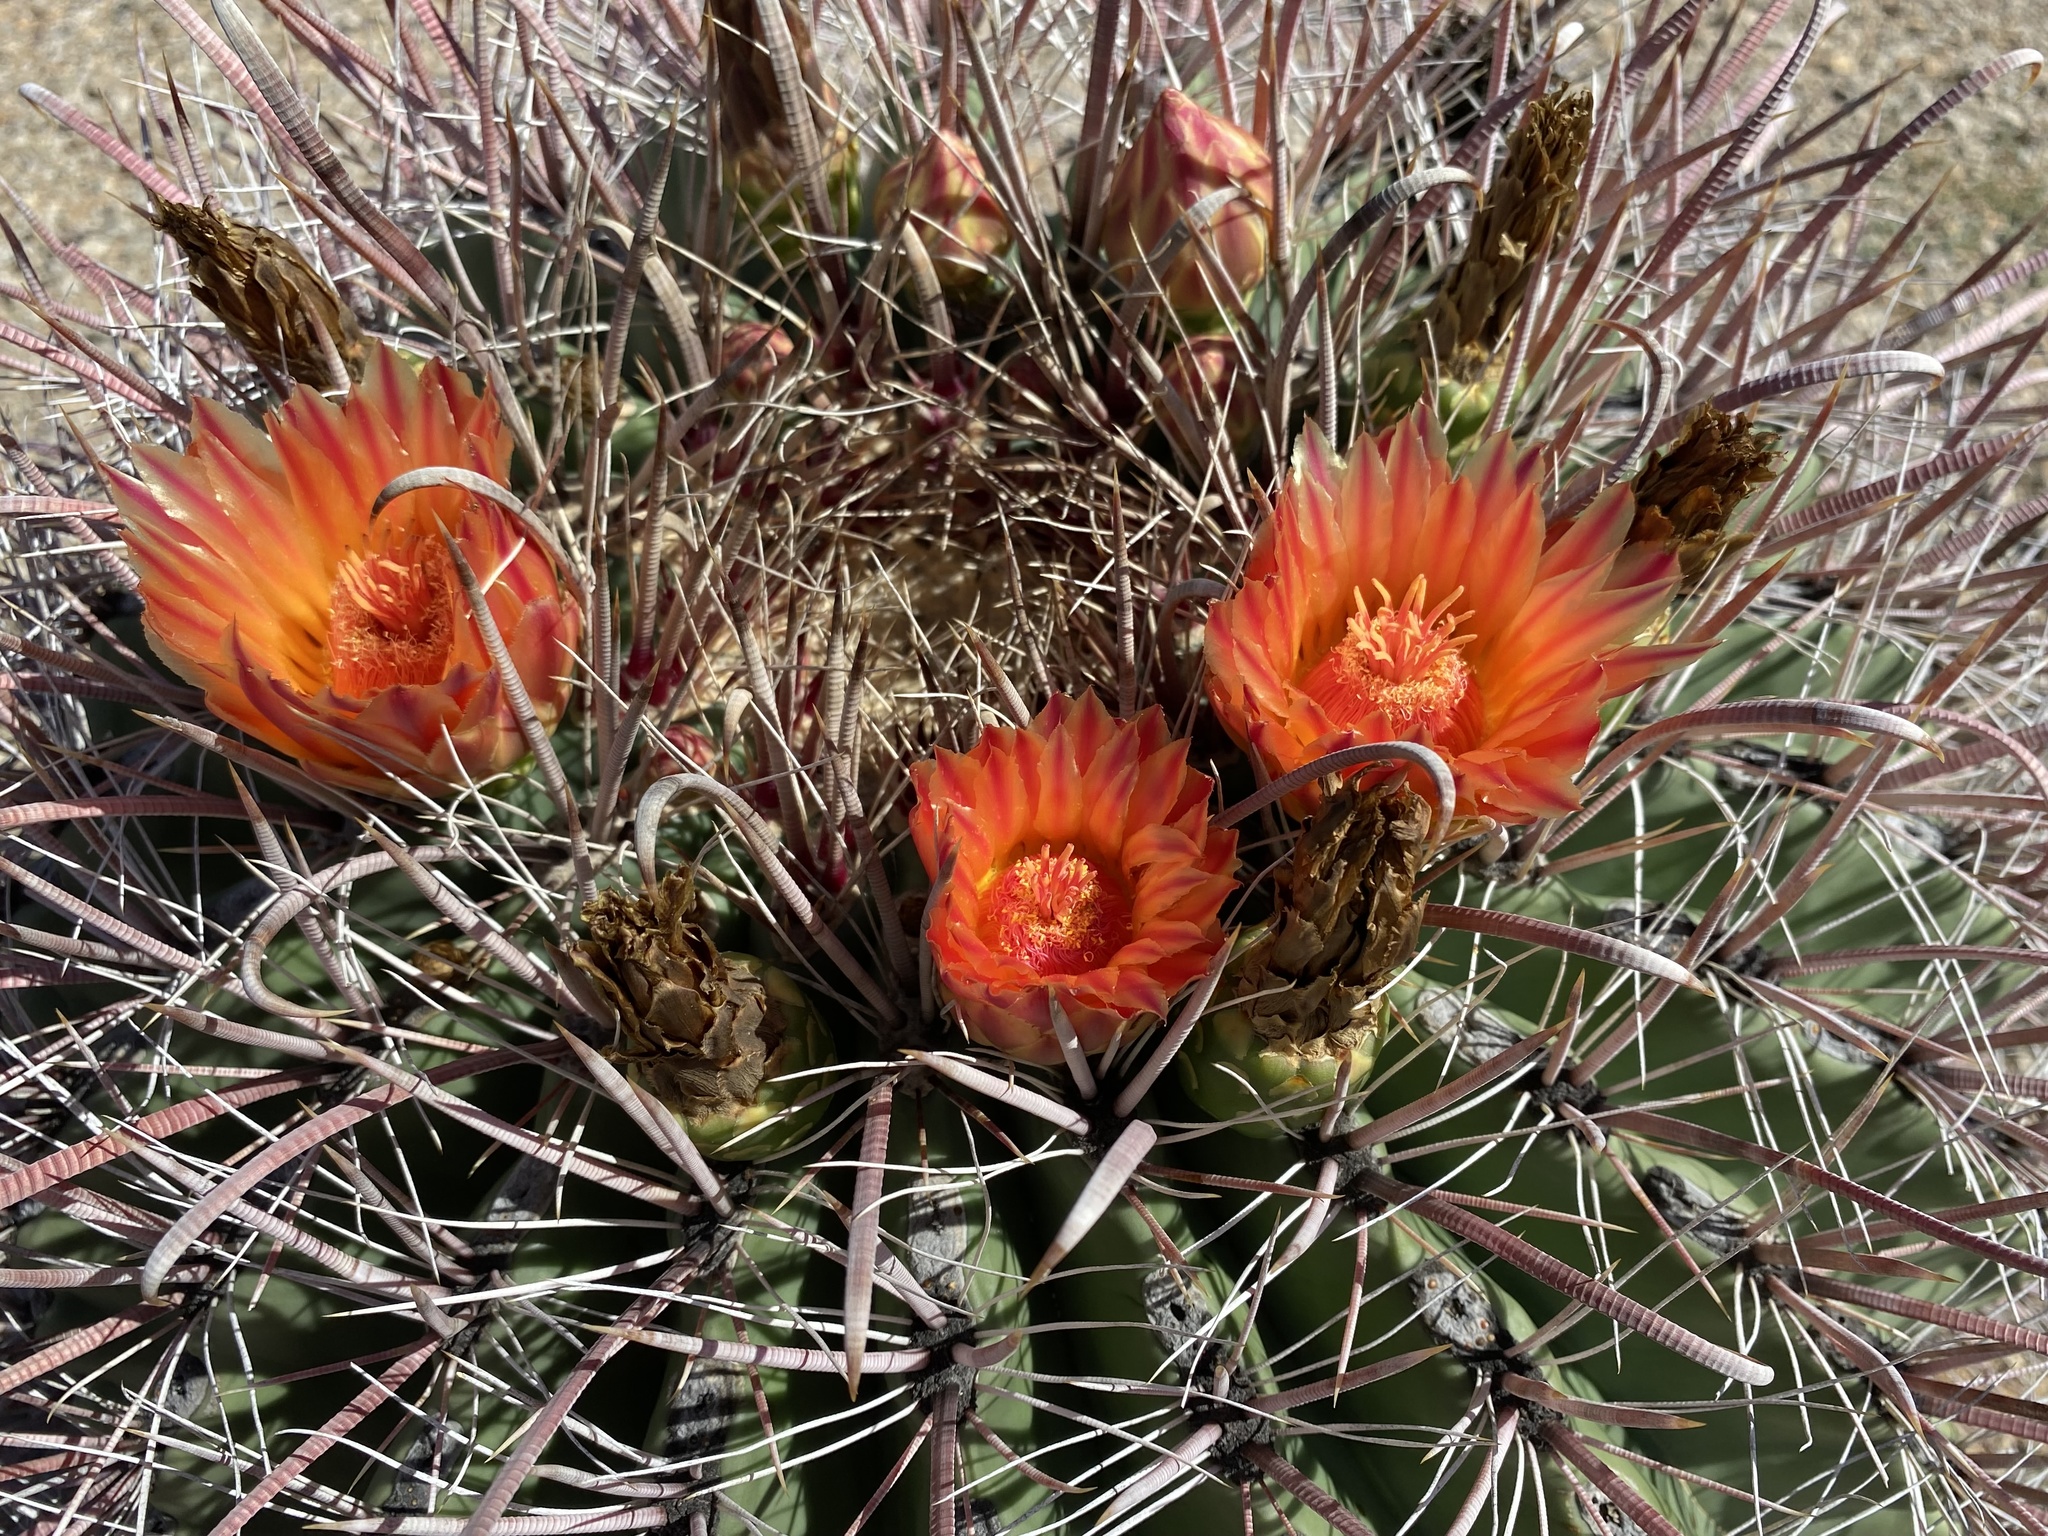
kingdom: Plantae
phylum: Tracheophyta
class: Magnoliopsida
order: Caryophyllales
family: Cactaceae
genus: Ferocactus
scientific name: Ferocactus wislizeni
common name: Candy barrel cactus
